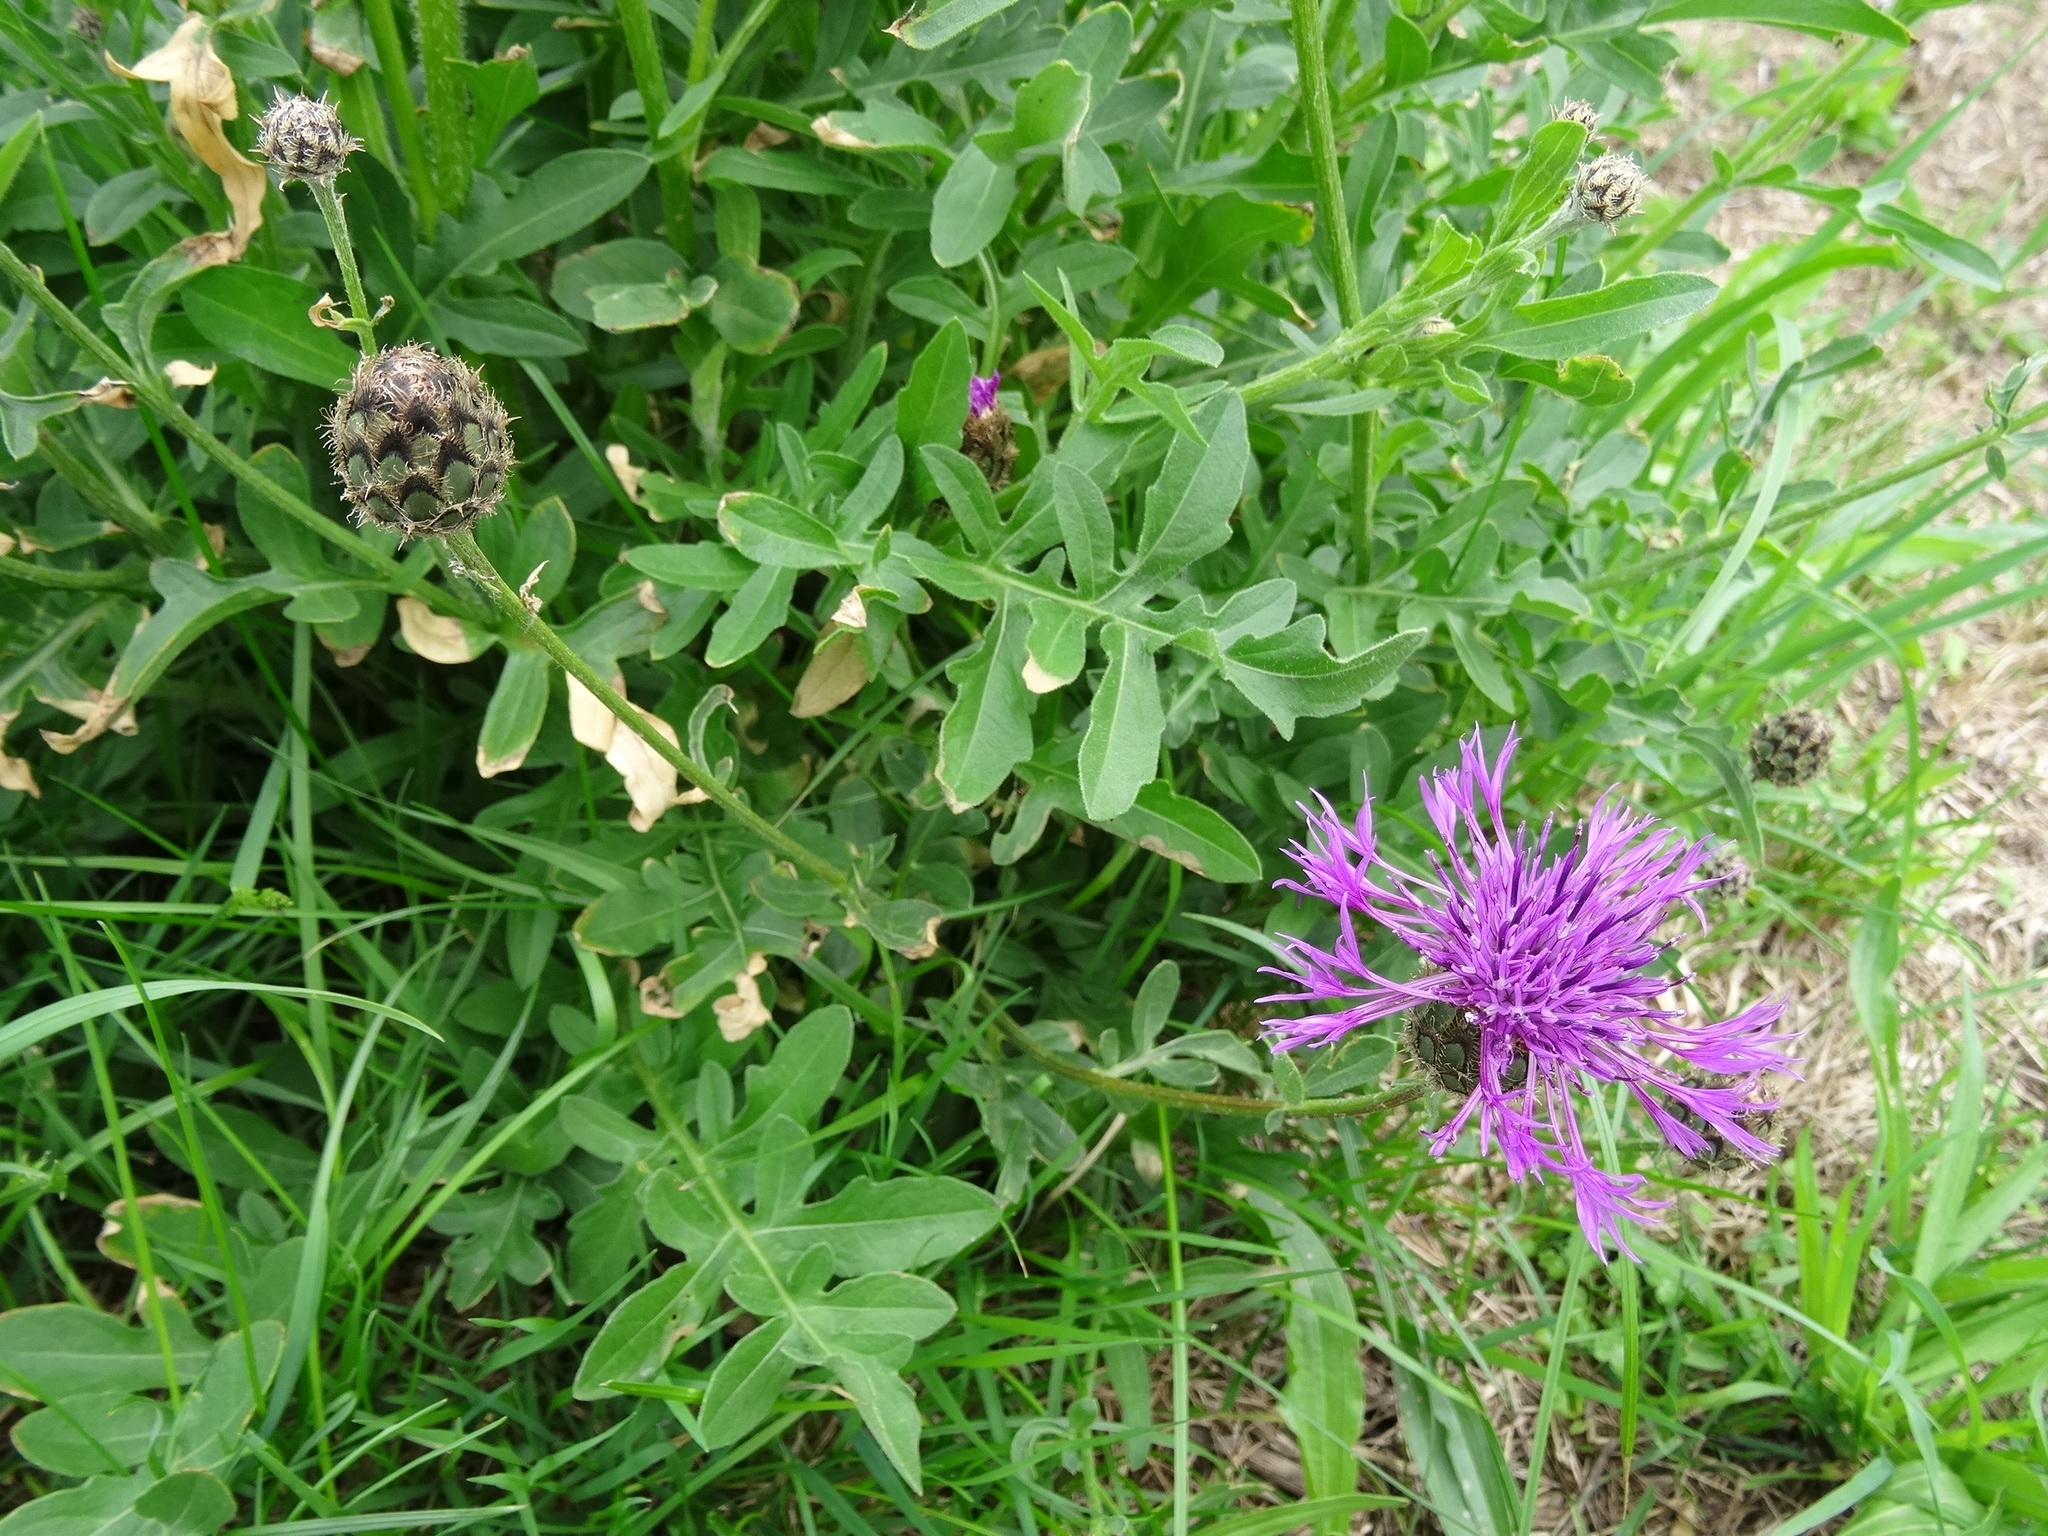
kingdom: Plantae
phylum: Tracheophyta
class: Magnoliopsida
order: Asterales
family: Asteraceae
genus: Centaurea
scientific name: Centaurea scabiosa
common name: Greater knapweed
